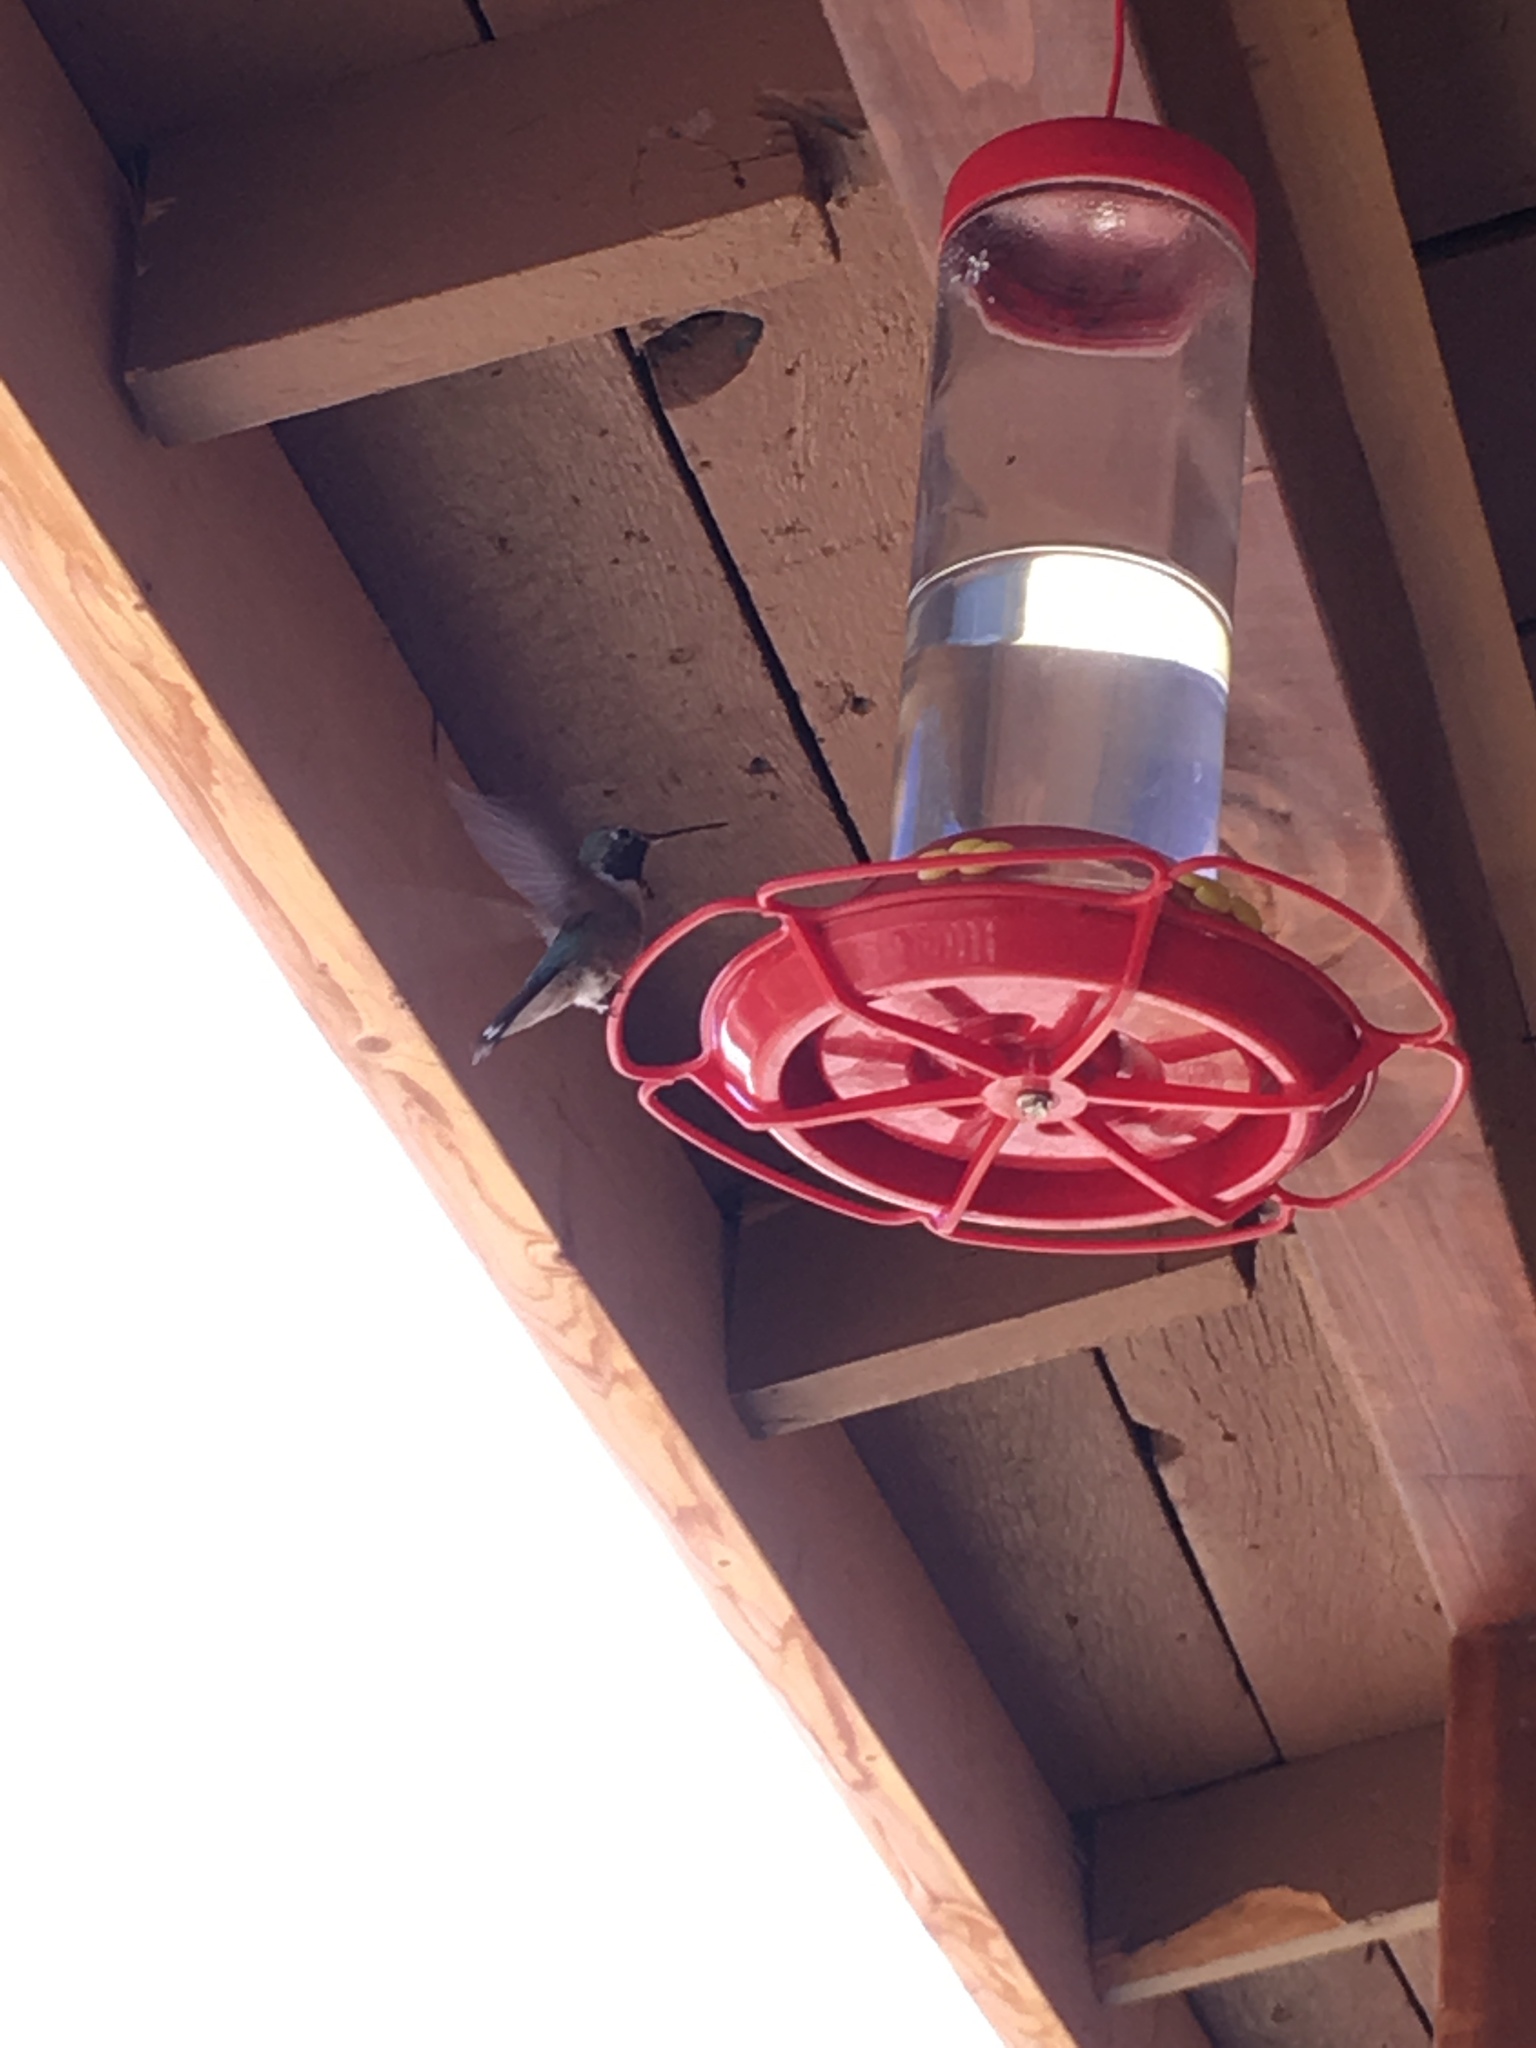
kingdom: Animalia
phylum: Chordata
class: Aves
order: Apodiformes
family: Trochilidae
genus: Selasphorus
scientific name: Selasphorus platycercus
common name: Broad-tailed hummingbird
